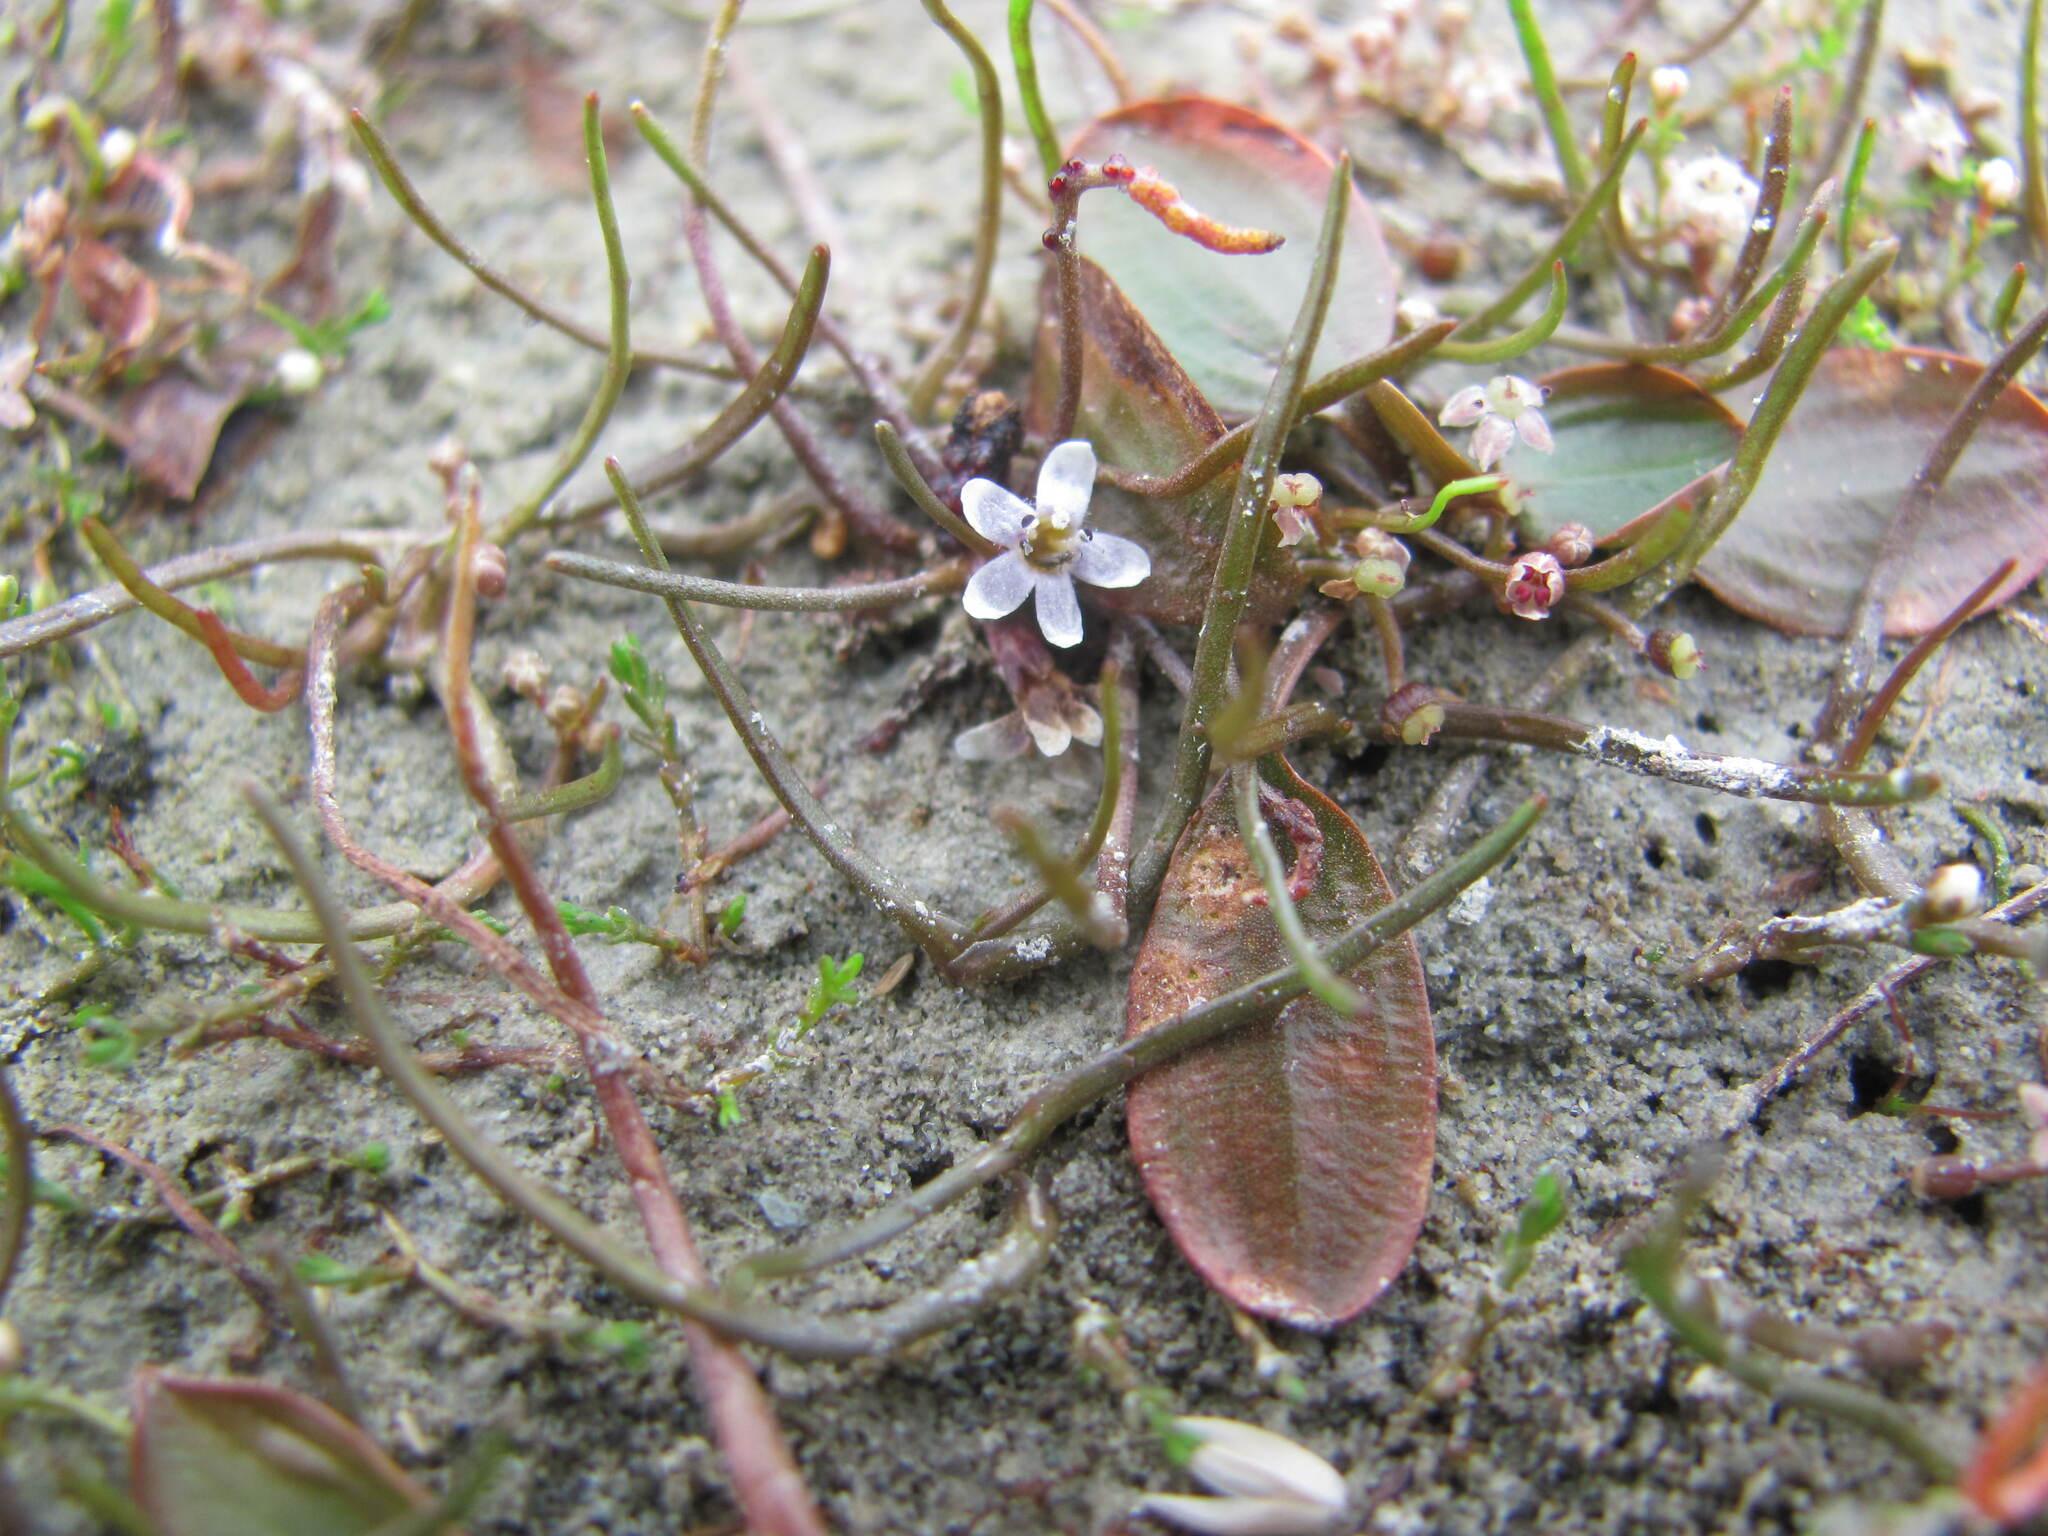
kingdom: Plantae
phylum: Tracheophyta
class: Magnoliopsida
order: Lamiales
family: Scrophulariaceae
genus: Limosella
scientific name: Limosella australis
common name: Welsh mudwort
